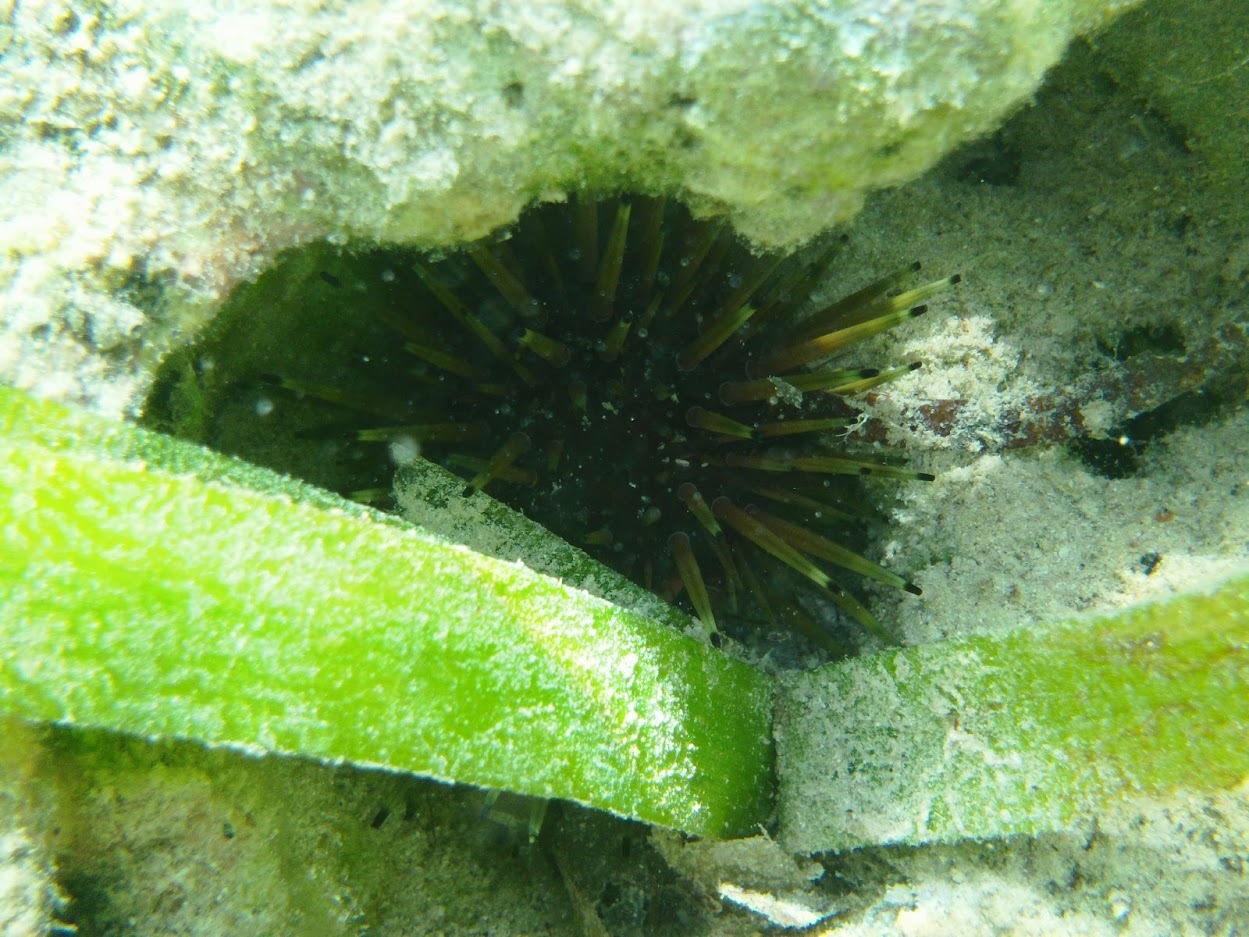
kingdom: Animalia
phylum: Echinodermata
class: Echinoidea
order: Camarodonta
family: Echinometridae
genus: Echinometra
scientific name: Echinometra viridis
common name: Reef urchin
